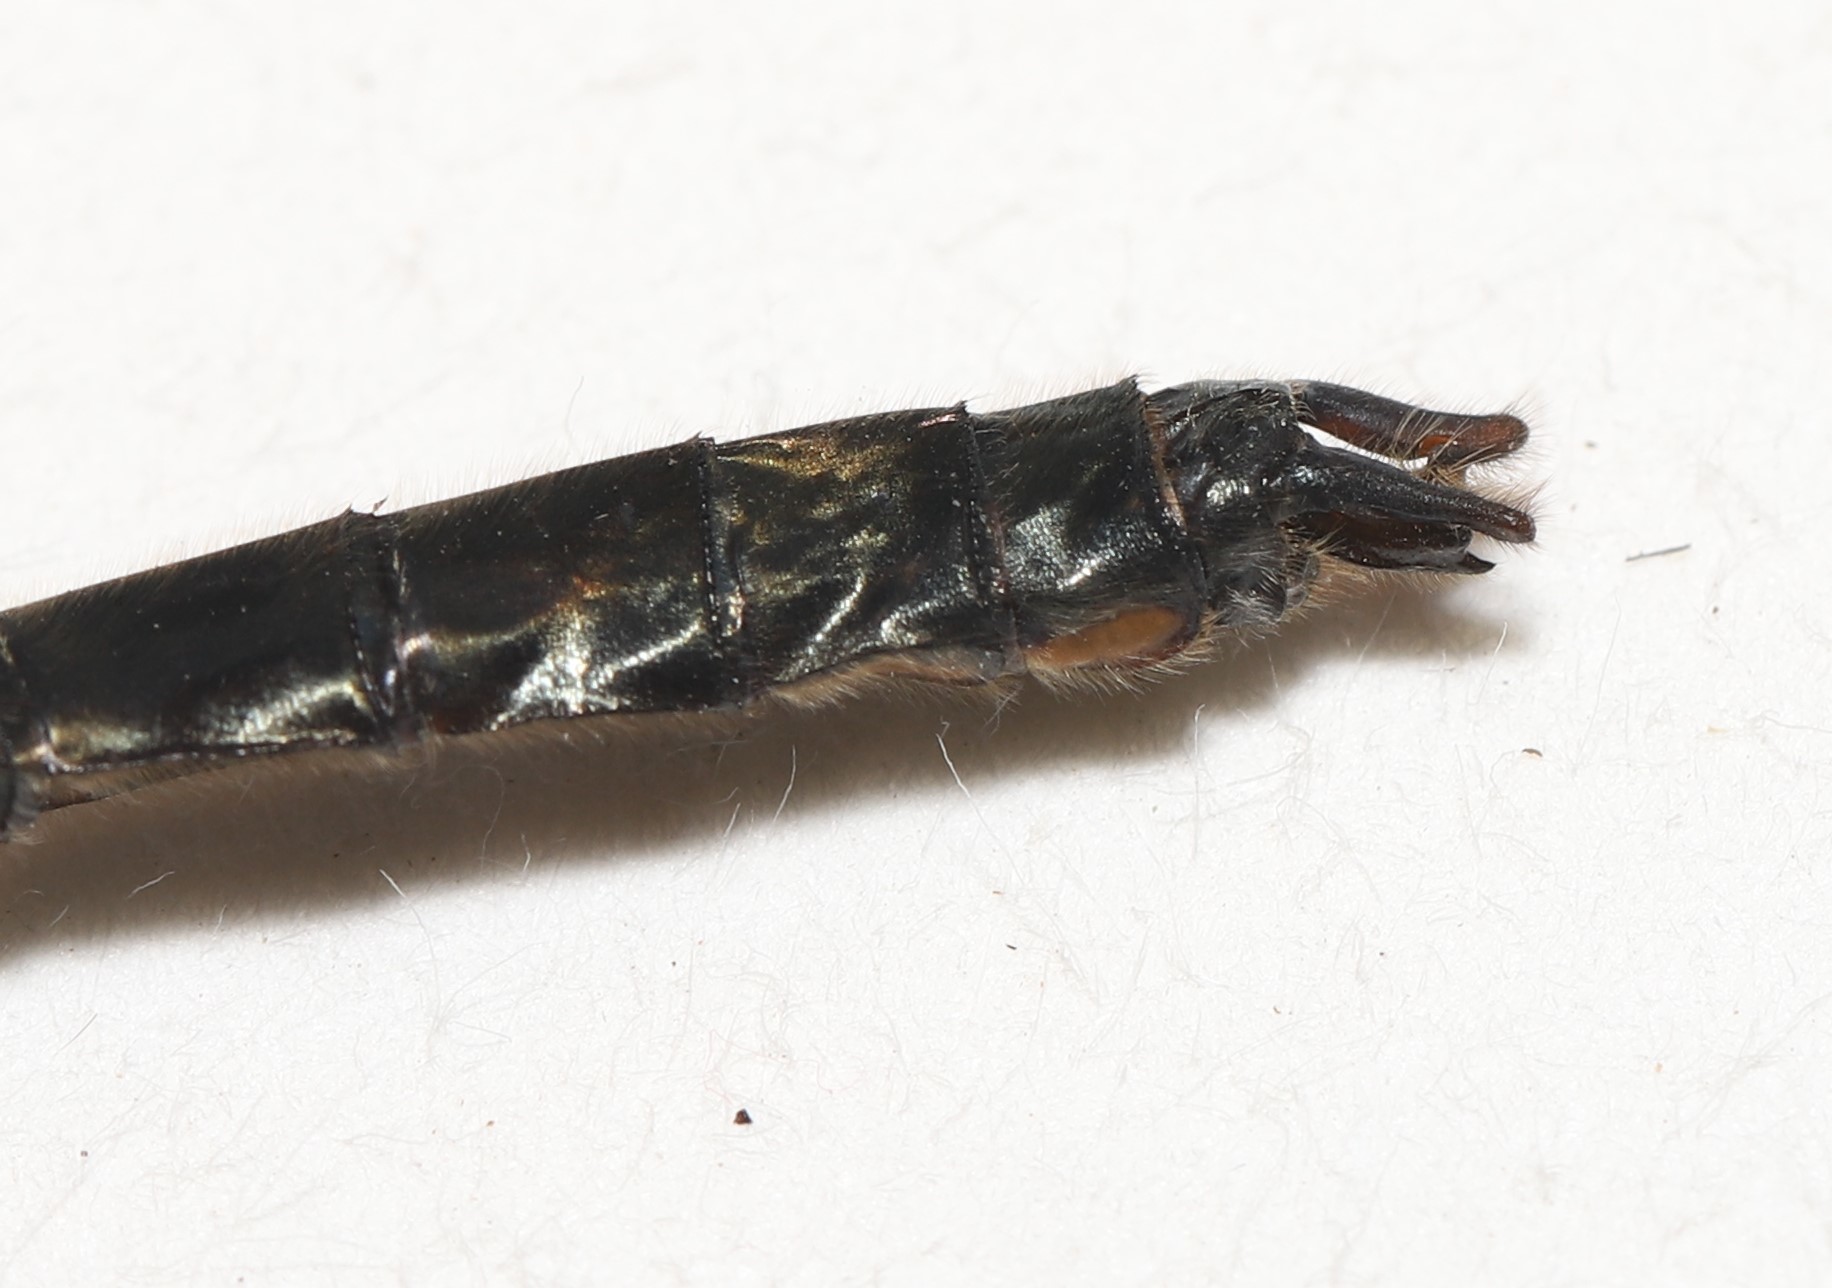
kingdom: Animalia
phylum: Arthropoda
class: Insecta
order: Odonata
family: Corduliidae
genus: Cordulia
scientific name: Cordulia shurtleffii
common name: American emerald
